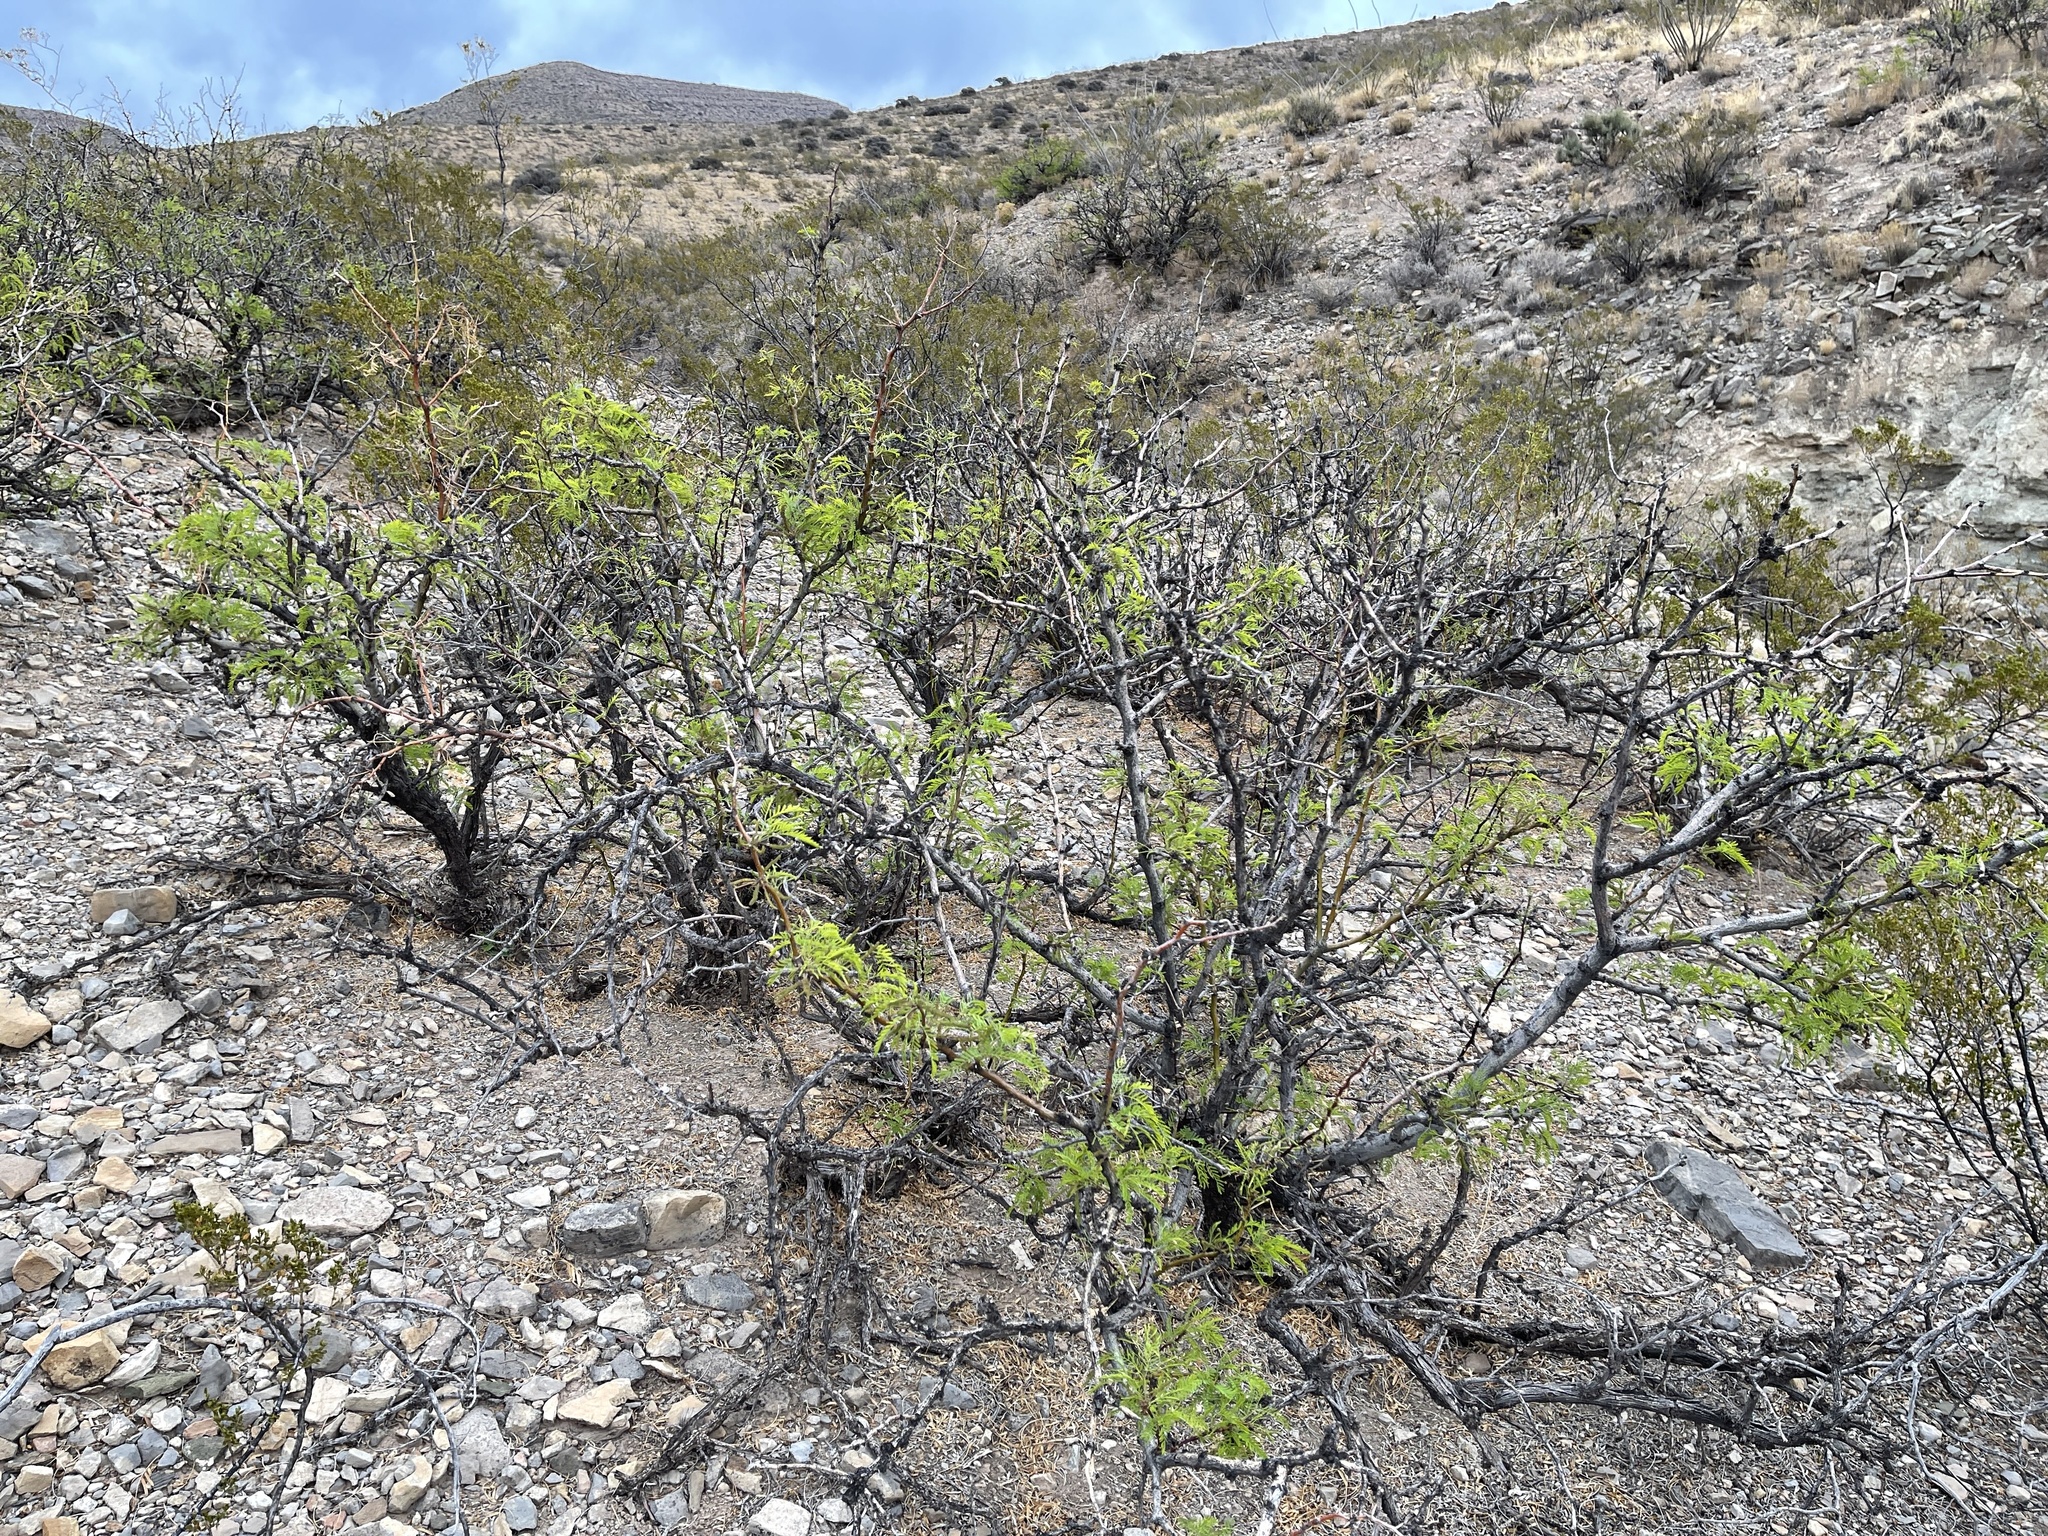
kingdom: Plantae
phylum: Tracheophyta
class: Magnoliopsida
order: Fabales
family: Fabaceae
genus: Prosopis
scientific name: Prosopis glandulosa
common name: Honey mesquite
